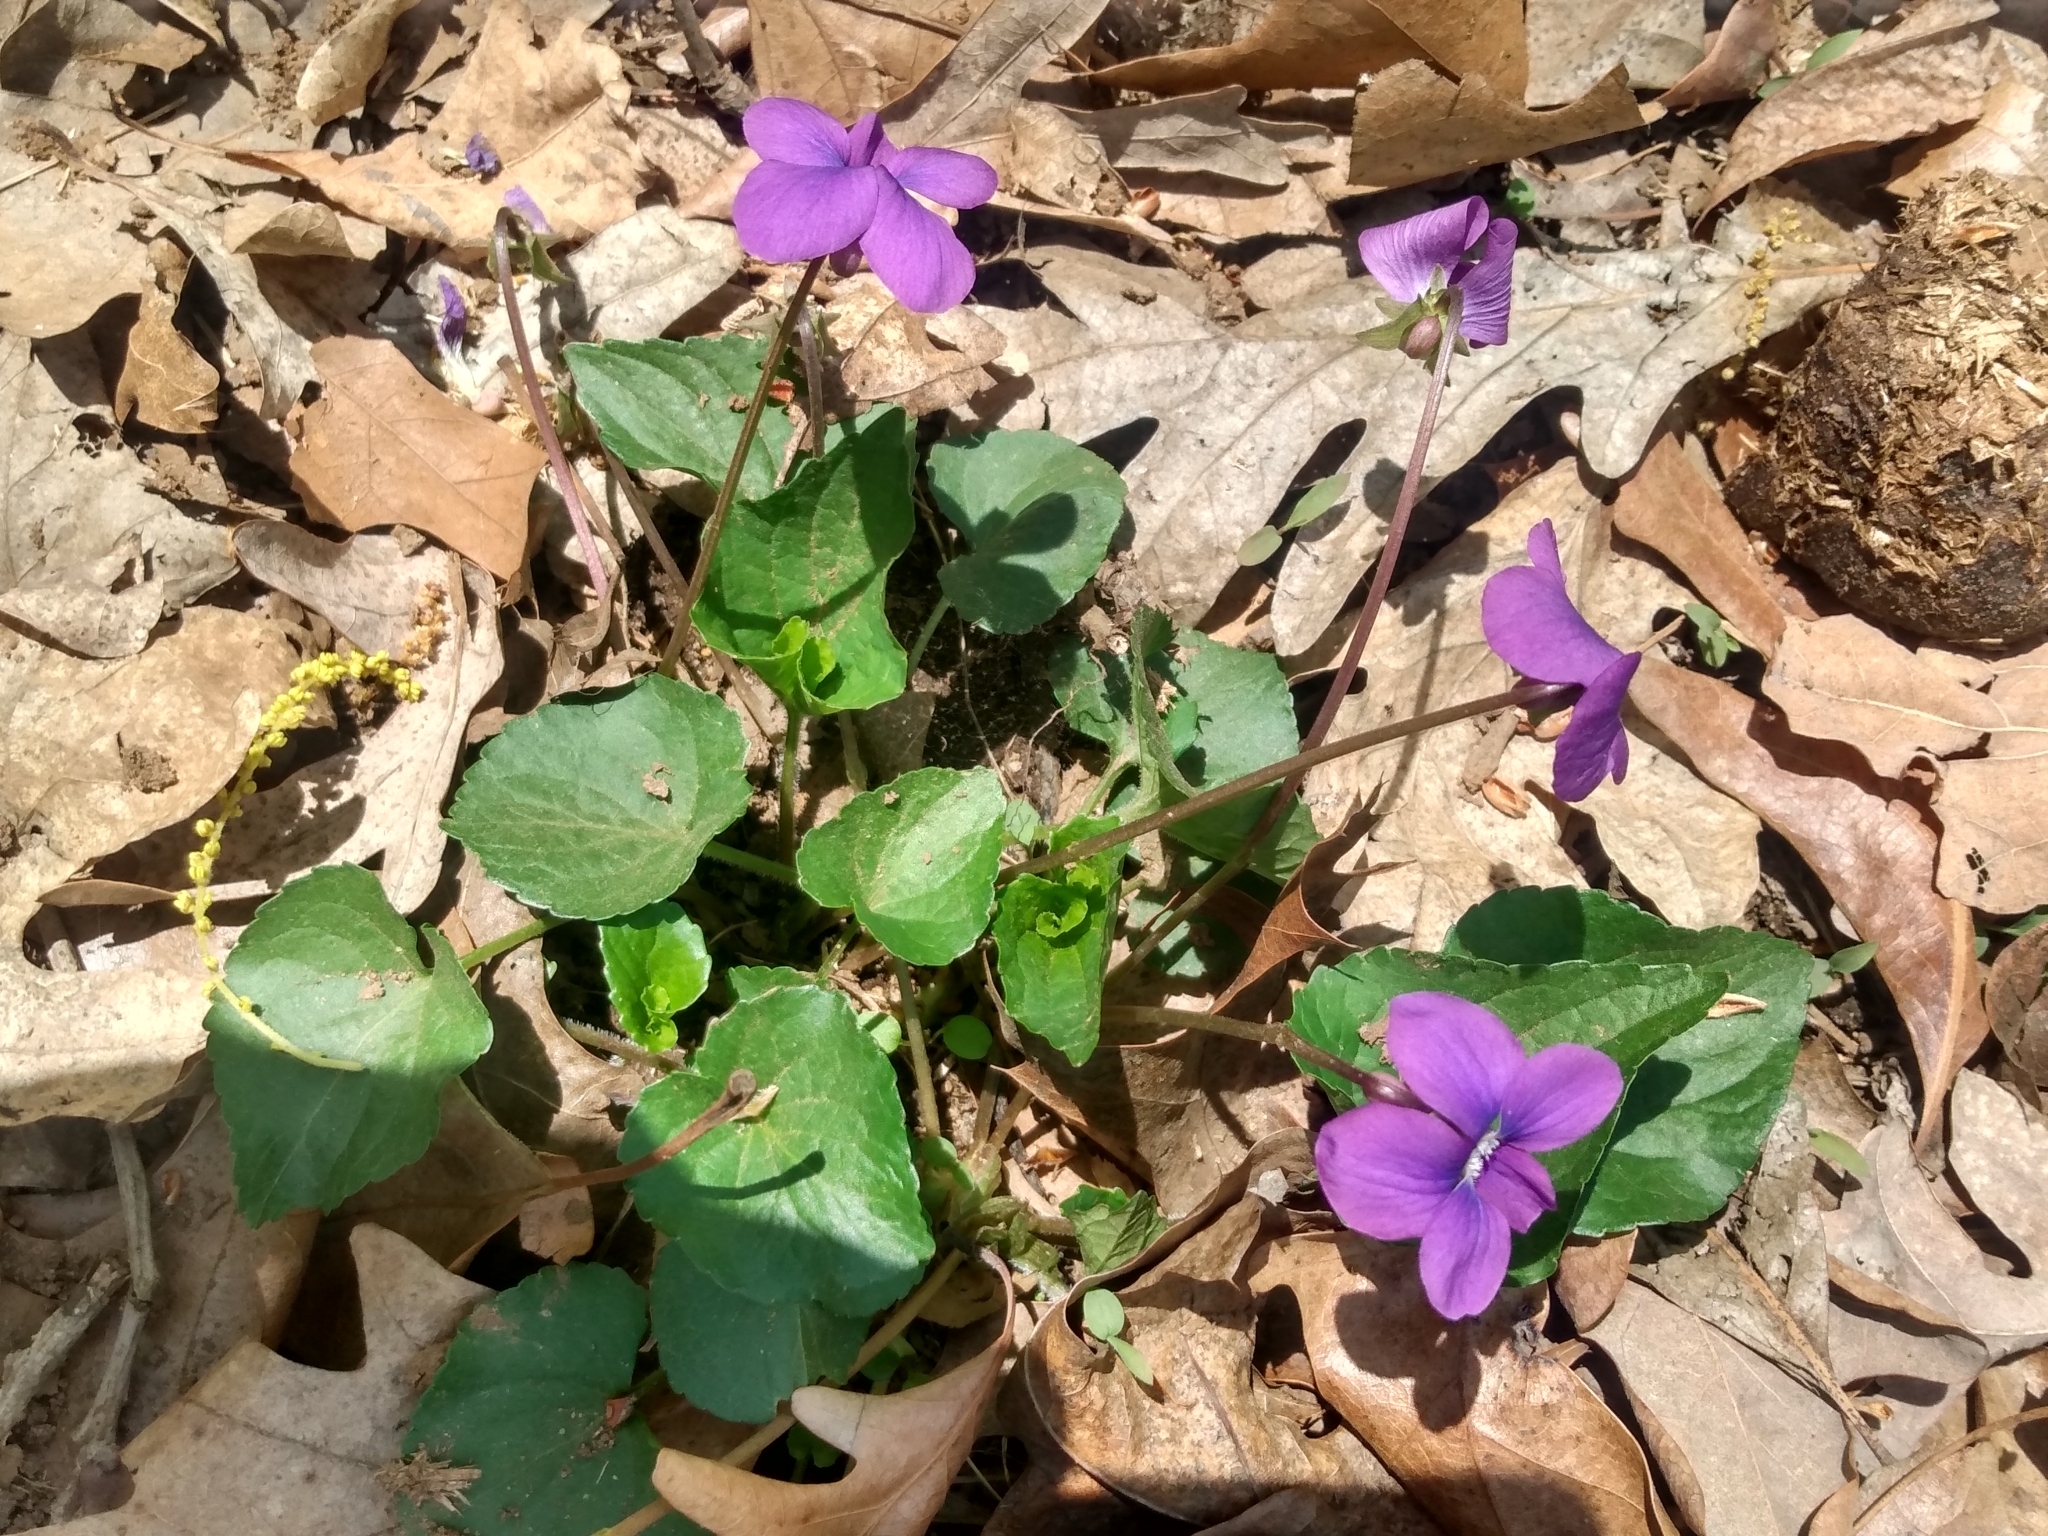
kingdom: Plantae
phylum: Tracheophyta
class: Magnoliopsida
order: Malpighiales
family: Violaceae
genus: Viola
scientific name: Viola sororia
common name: Dooryard violet
